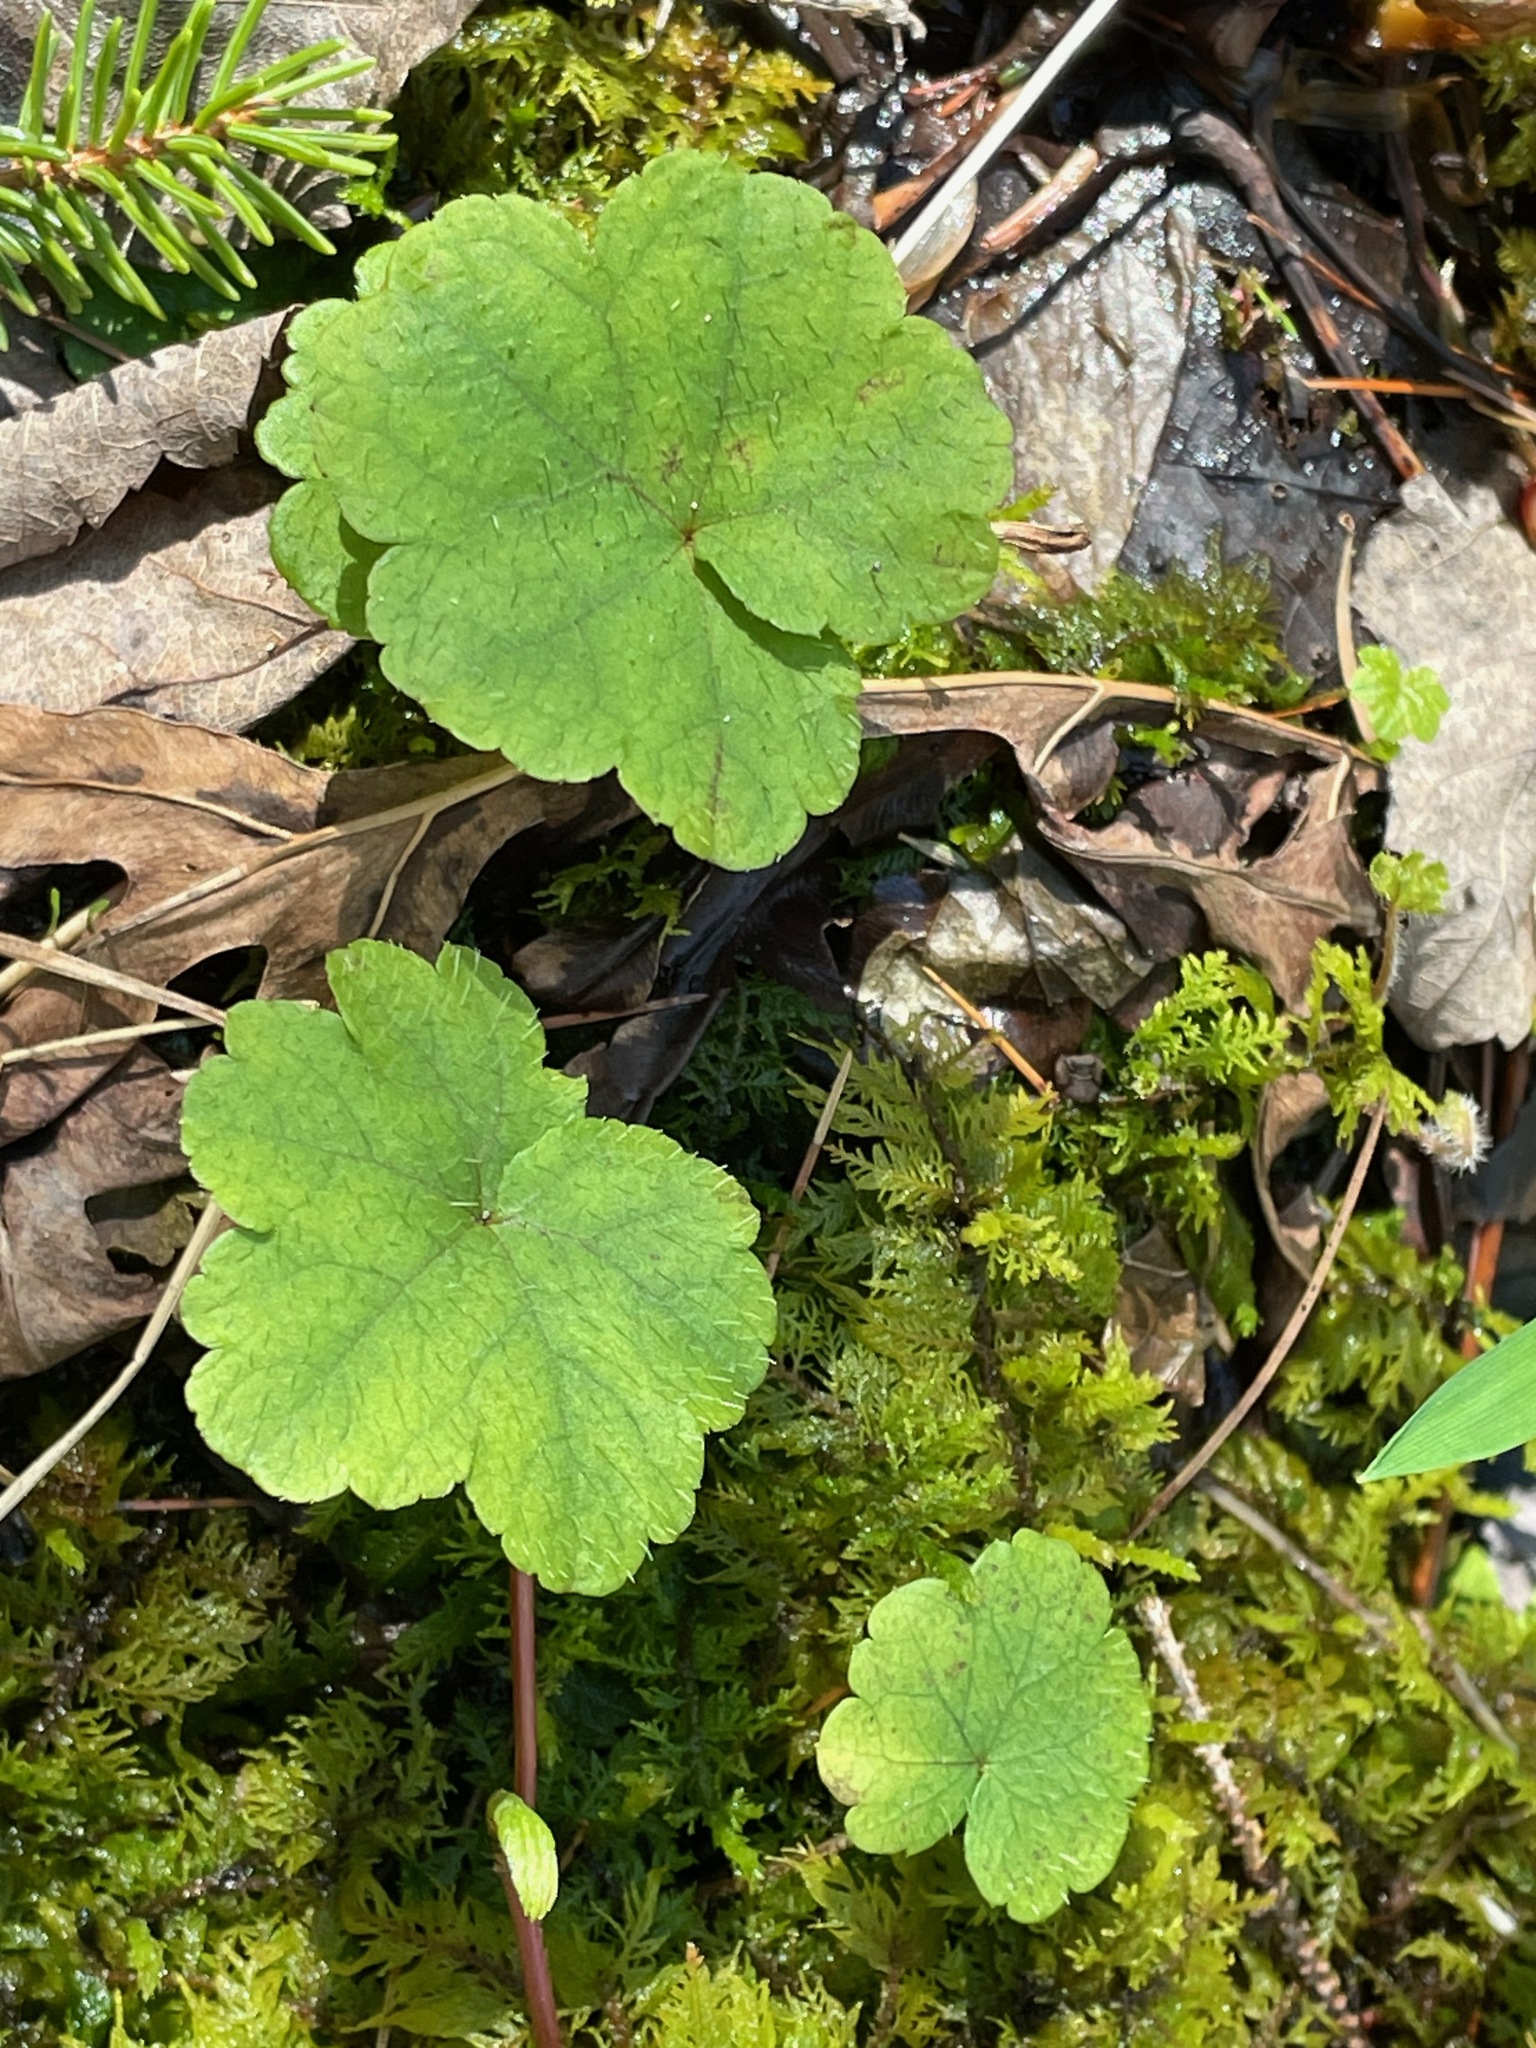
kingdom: Plantae
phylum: Tracheophyta
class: Magnoliopsida
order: Saxifragales
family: Saxifragaceae
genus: Mitella
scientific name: Mitella nuda
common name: Bare-stemmed bishop's-cap
